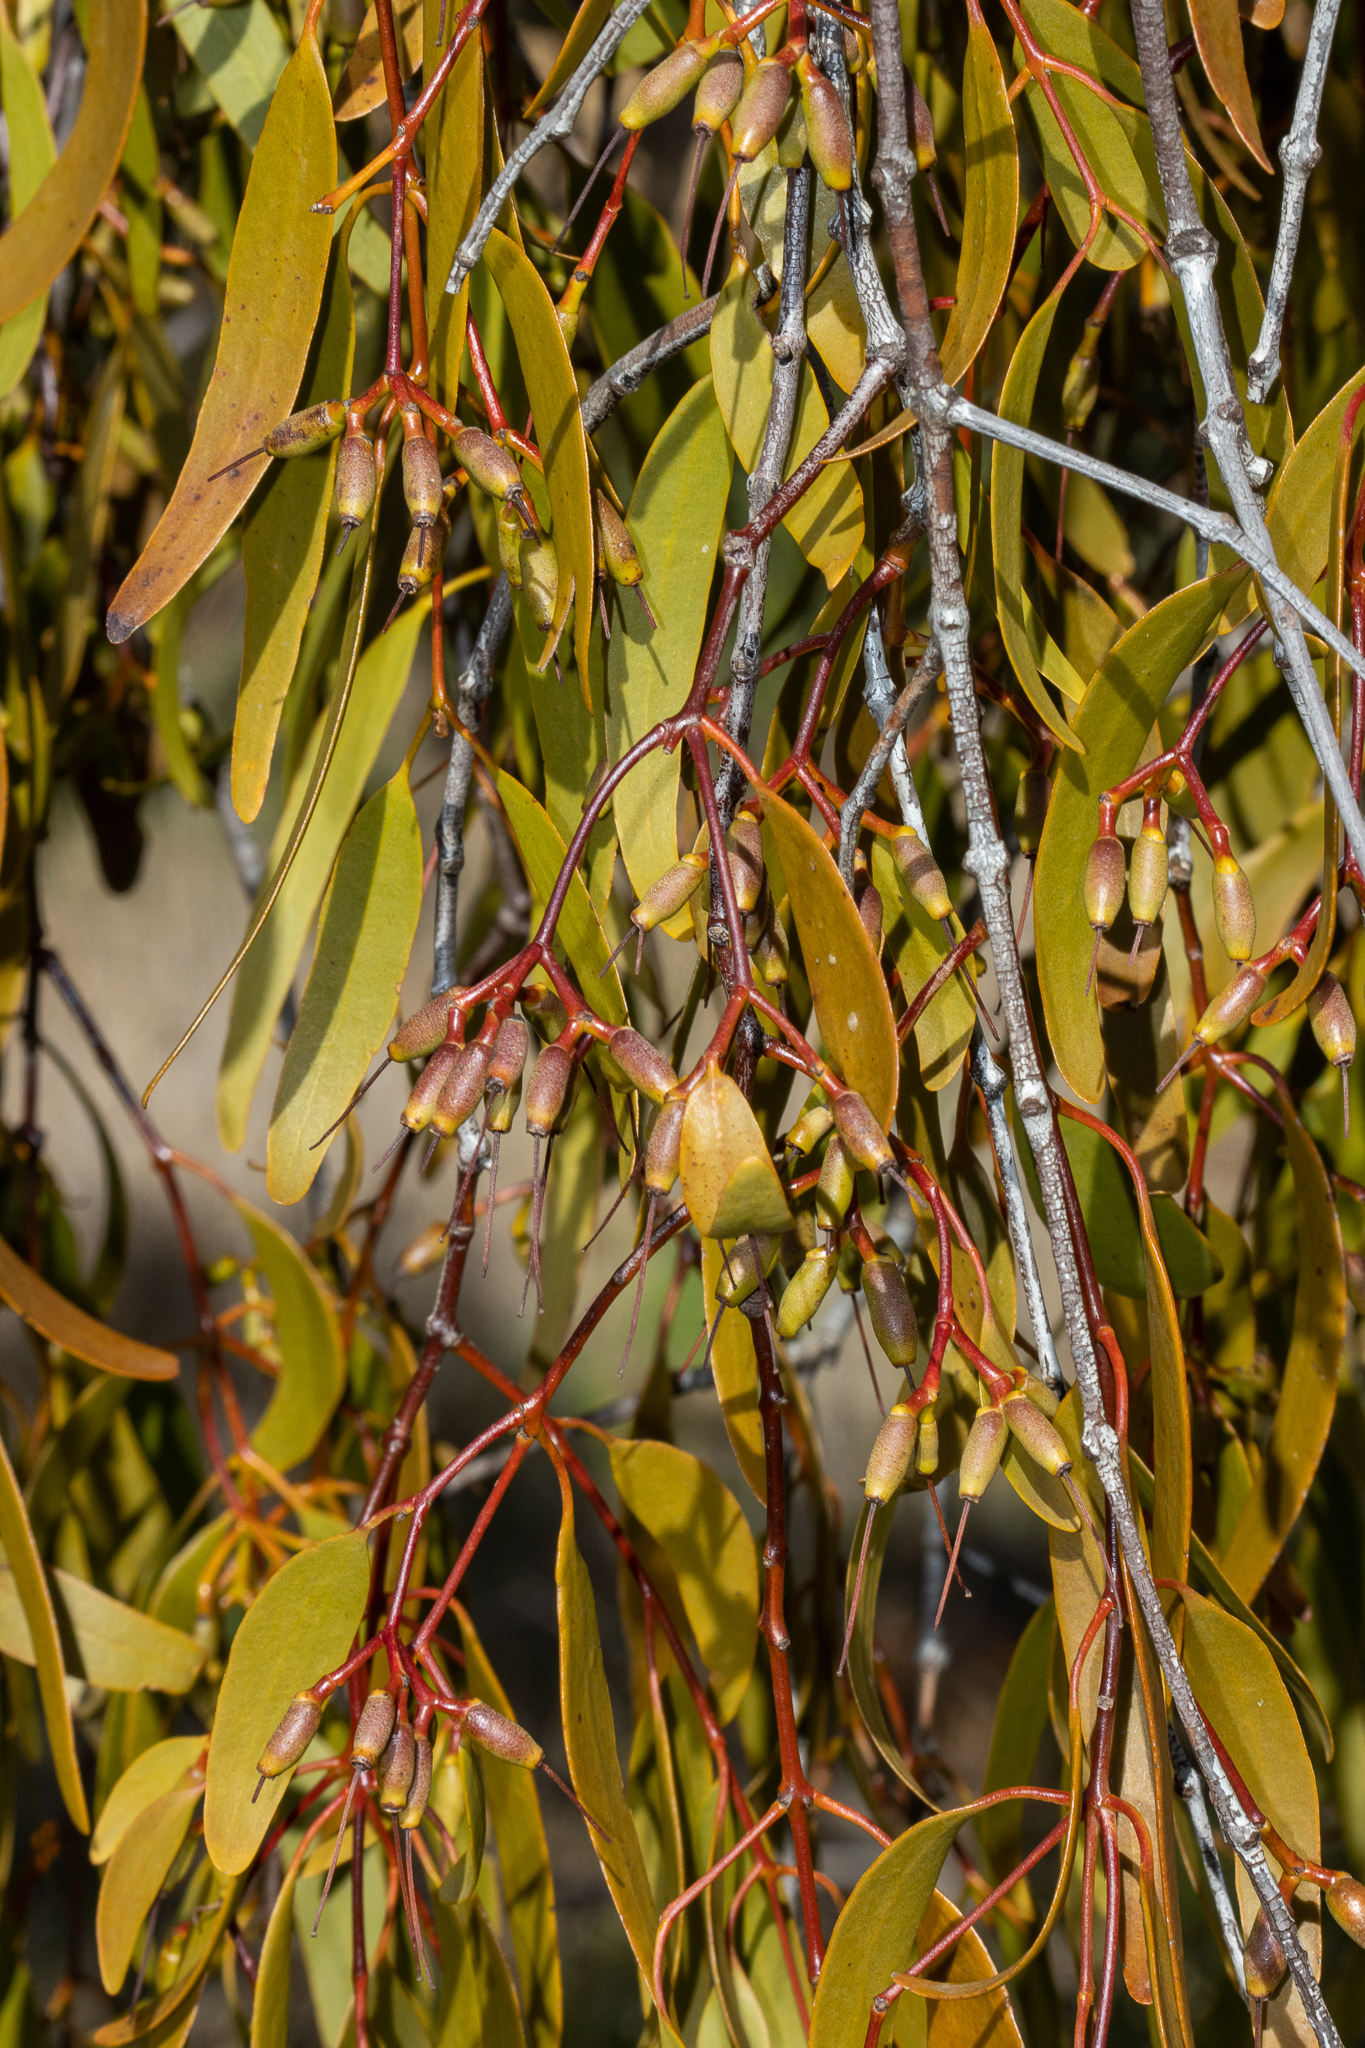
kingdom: Plantae
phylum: Tracheophyta
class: Magnoliopsida
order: Santalales
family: Loranthaceae
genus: Amyema
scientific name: Amyema miquelii
